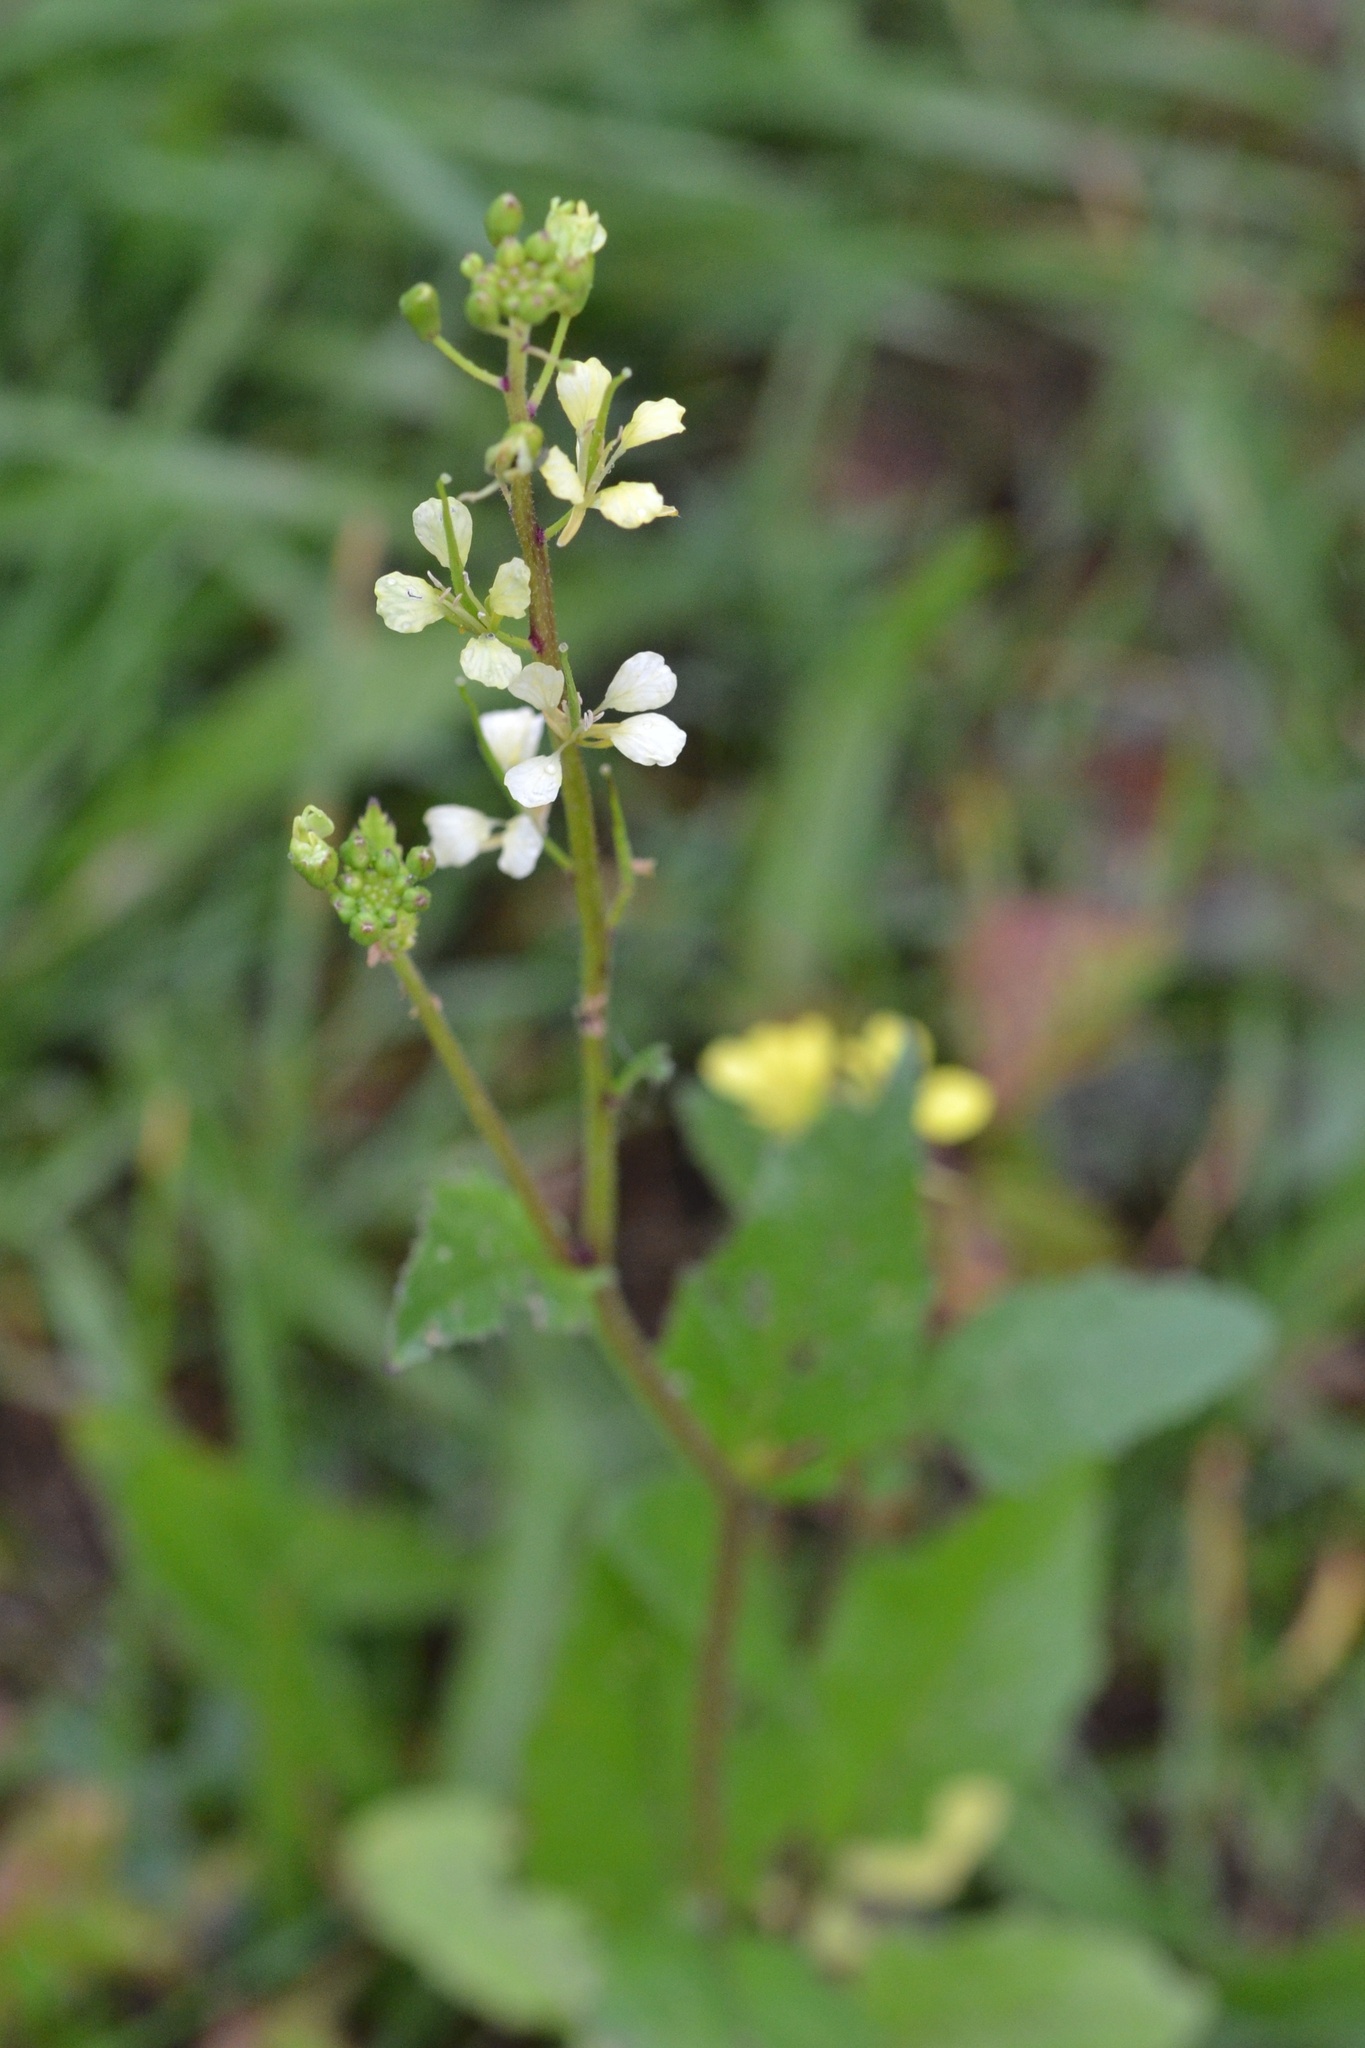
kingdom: Plantae
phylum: Tracheophyta
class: Magnoliopsida
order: Brassicales
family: Brassicaceae
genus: Sinapis
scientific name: Sinapis arvensis
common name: Charlock
